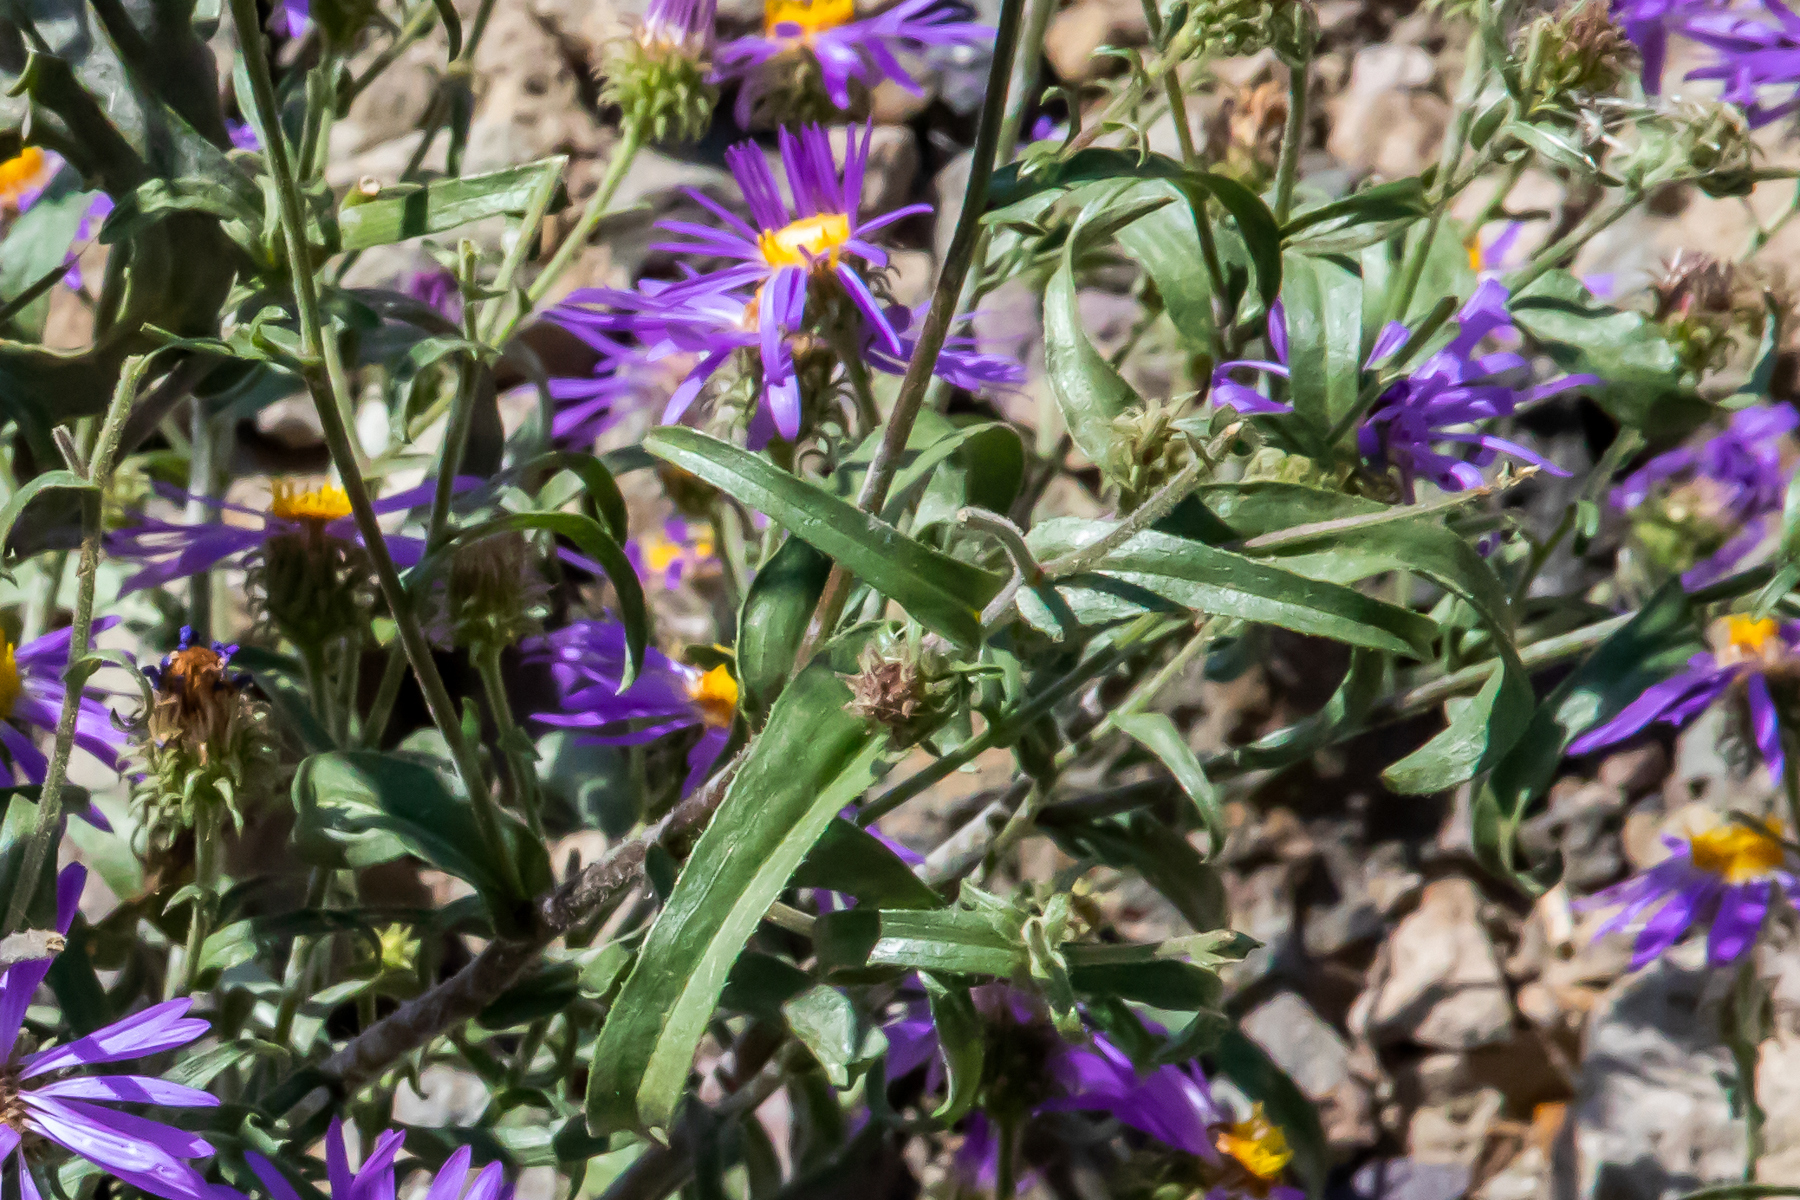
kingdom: Plantae
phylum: Tracheophyta
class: Magnoliopsida
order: Asterales
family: Asteraceae
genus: Dieteria
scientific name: Dieteria bigelovii
